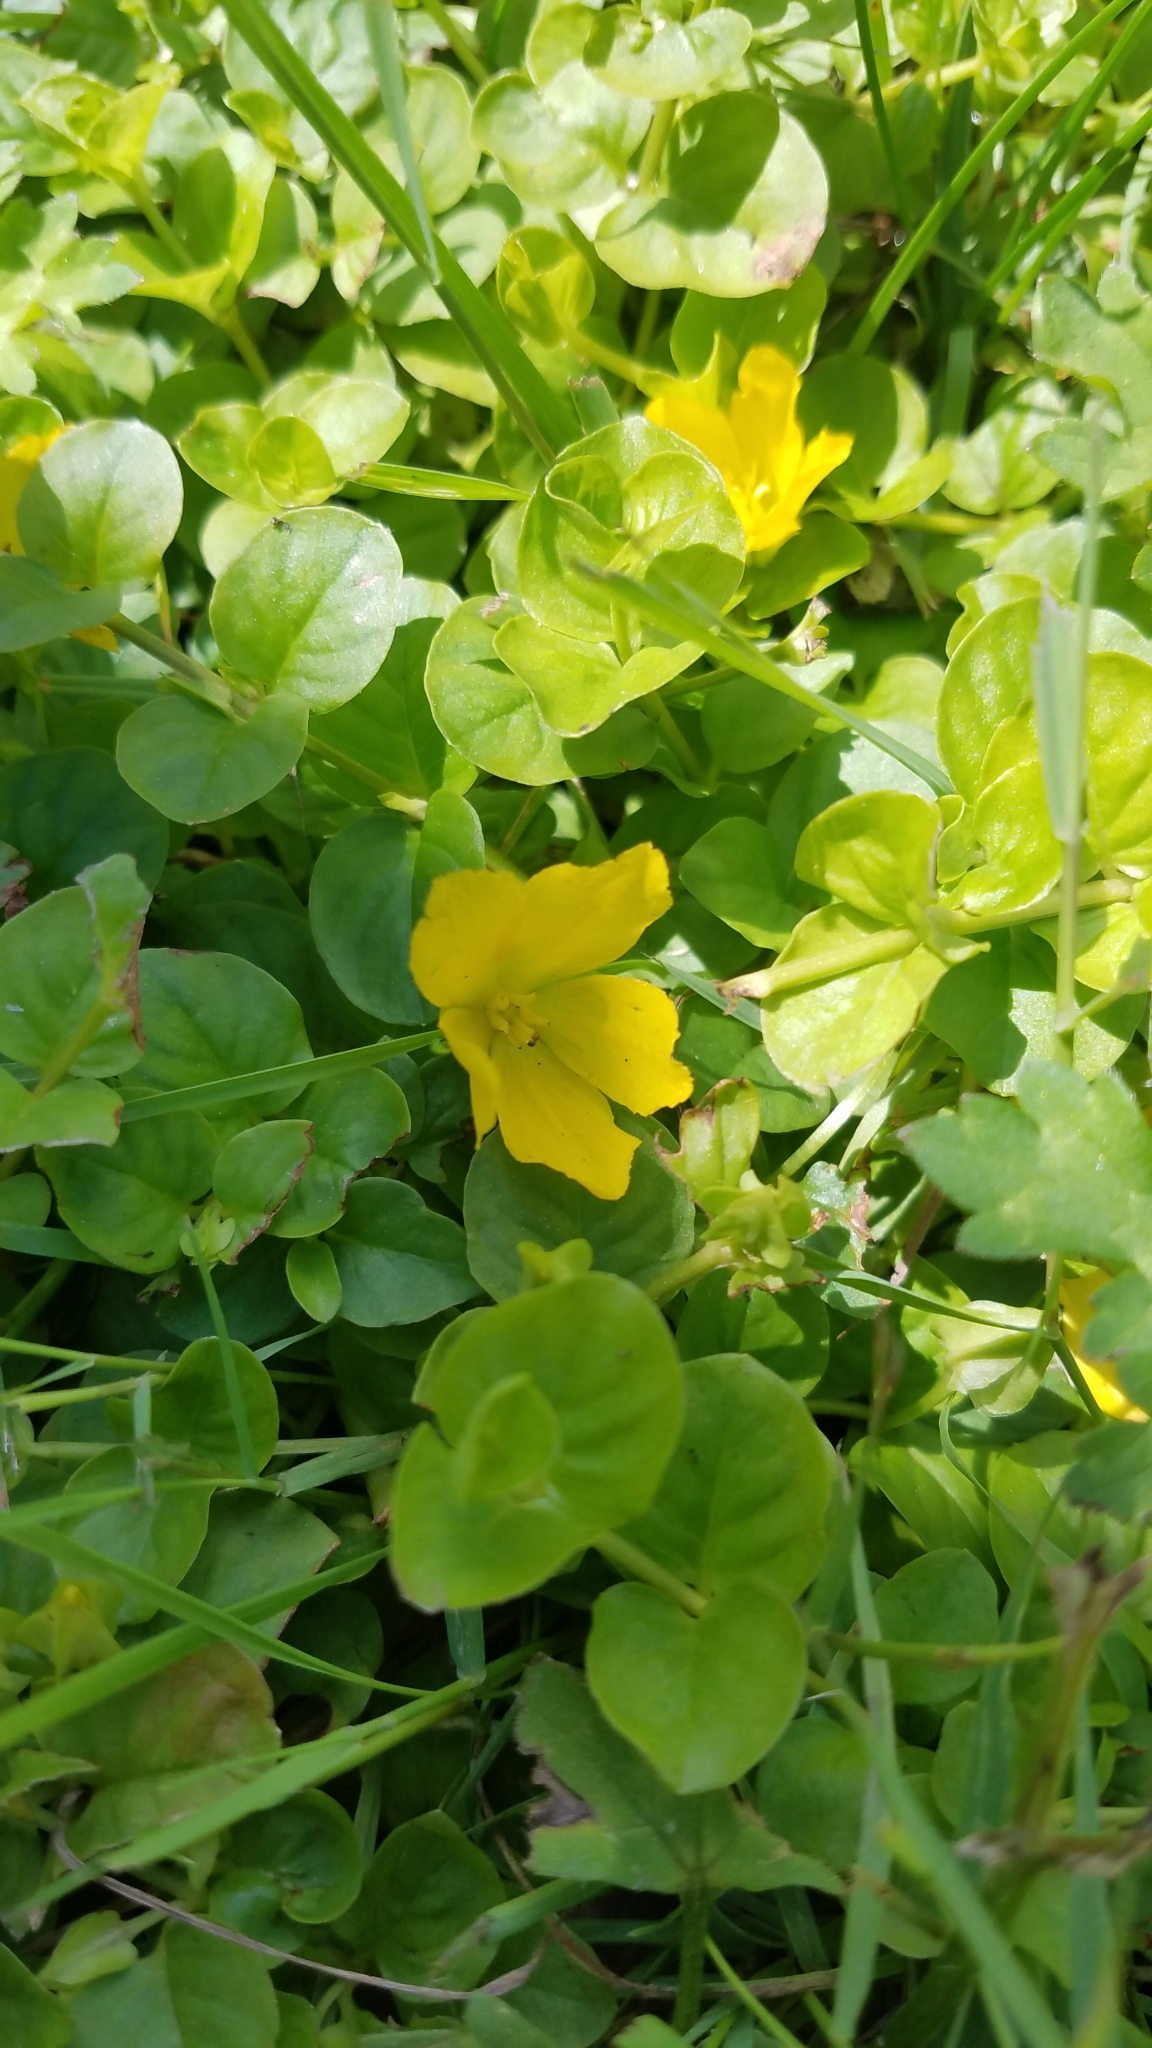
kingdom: Plantae
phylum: Tracheophyta
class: Magnoliopsida
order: Ericales
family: Primulaceae
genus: Lysimachia
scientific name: Lysimachia nummularia
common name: Moneywort
